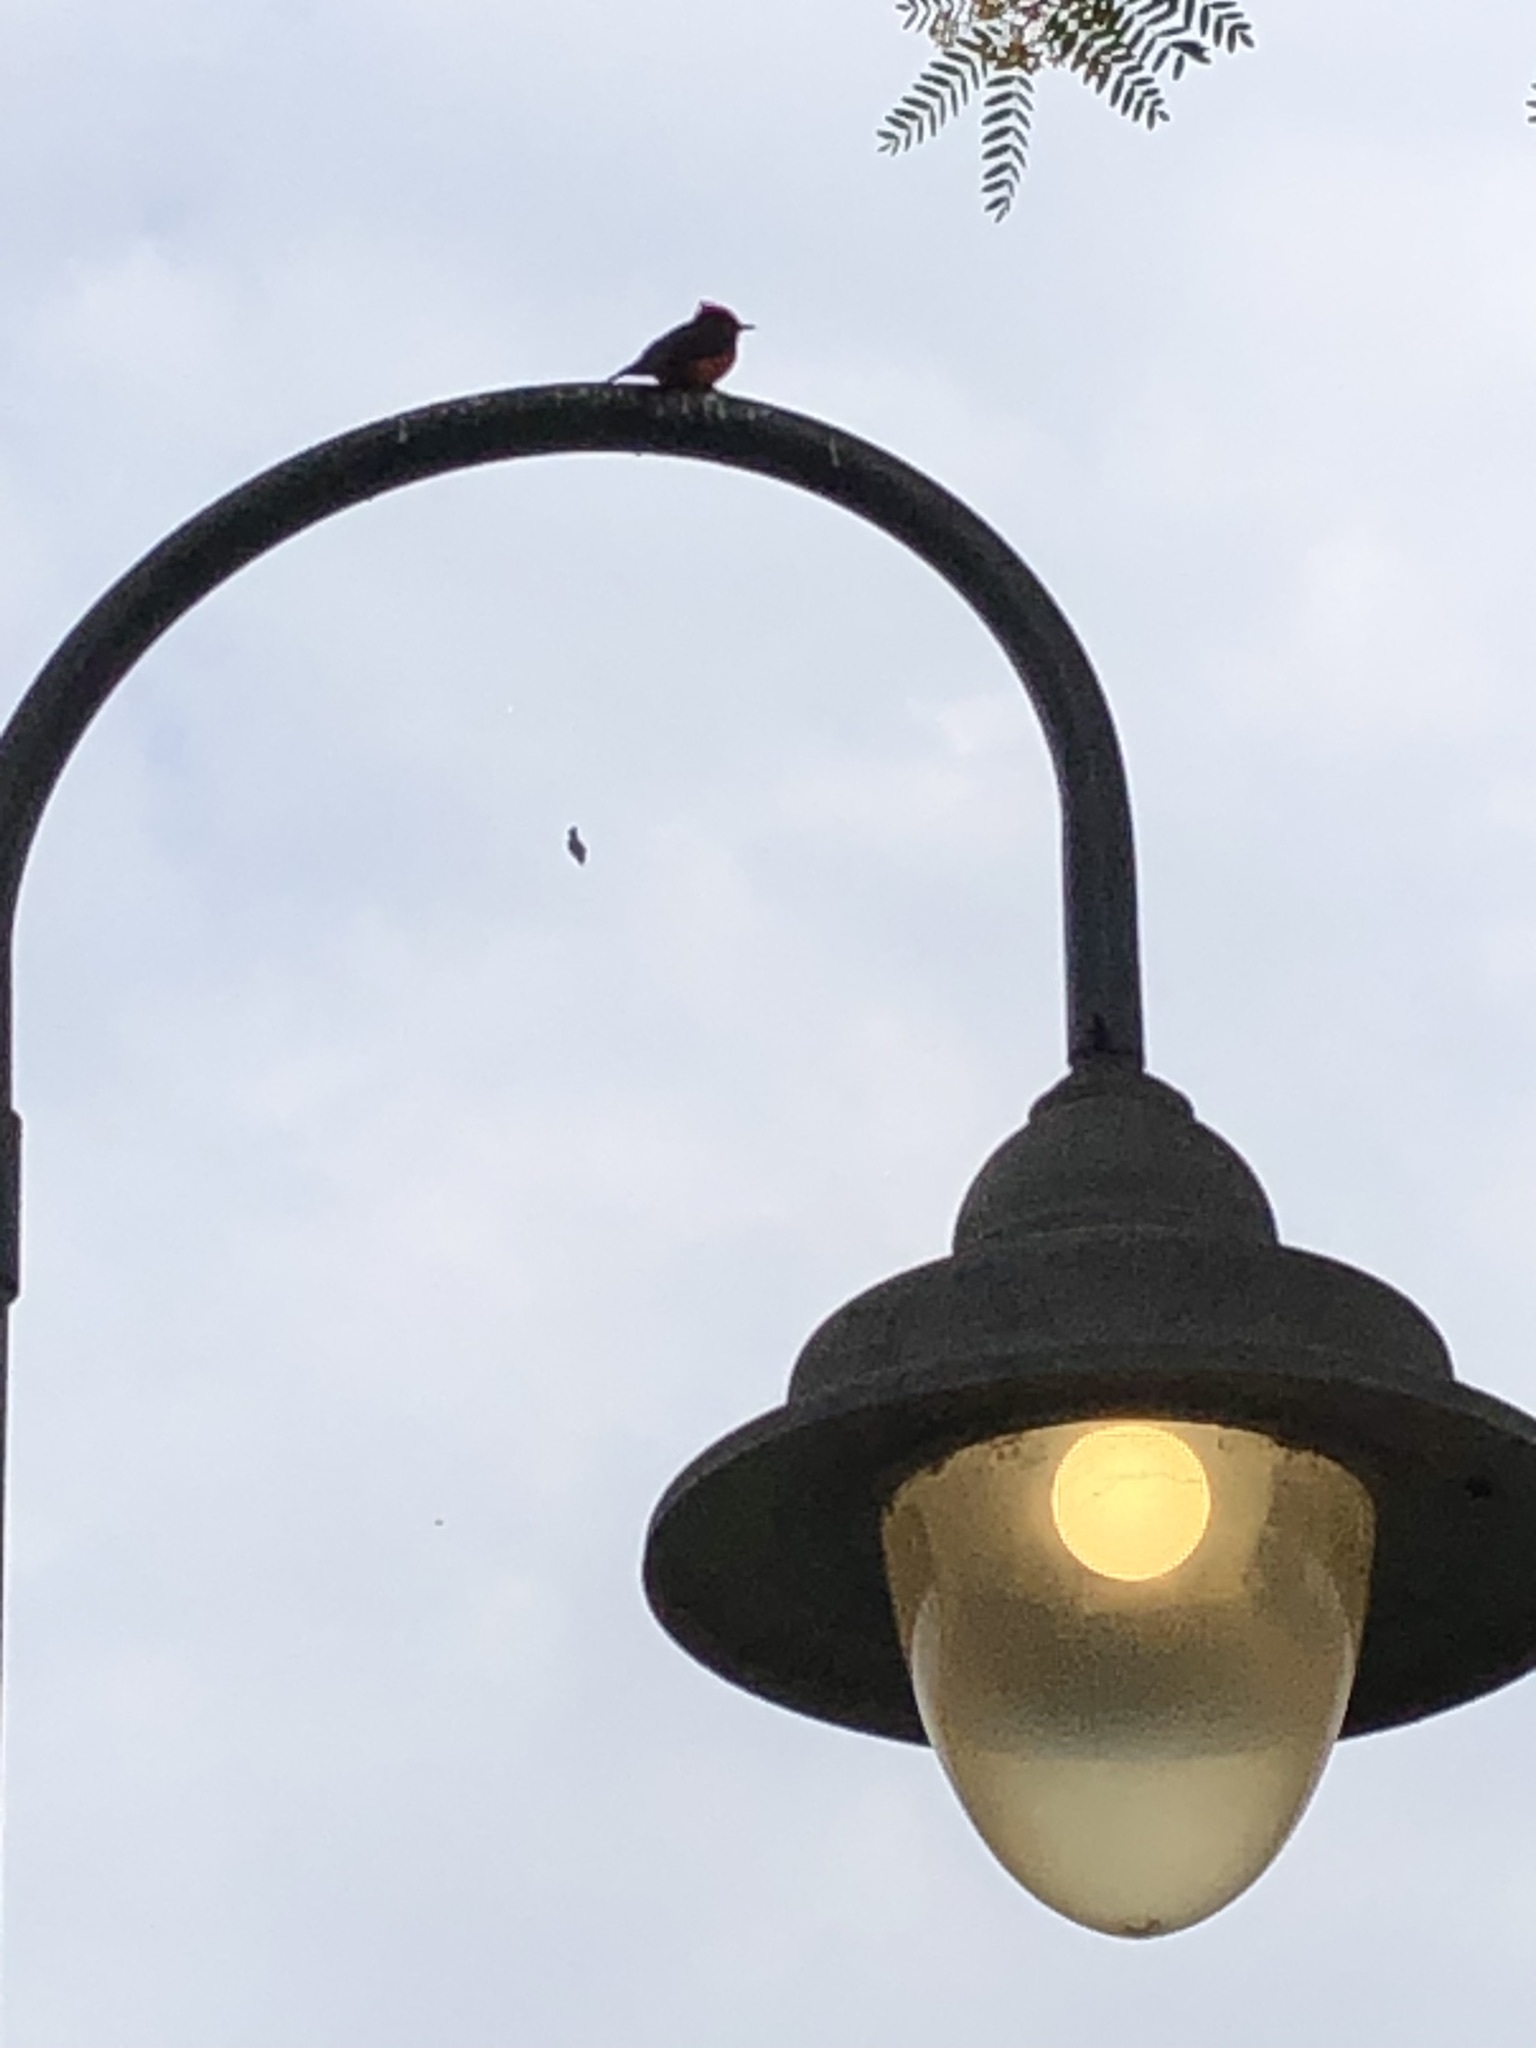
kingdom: Animalia
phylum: Chordata
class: Aves
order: Passeriformes
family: Tyrannidae
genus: Pyrocephalus
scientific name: Pyrocephalus rubinus
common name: Vermilion flycatcher
